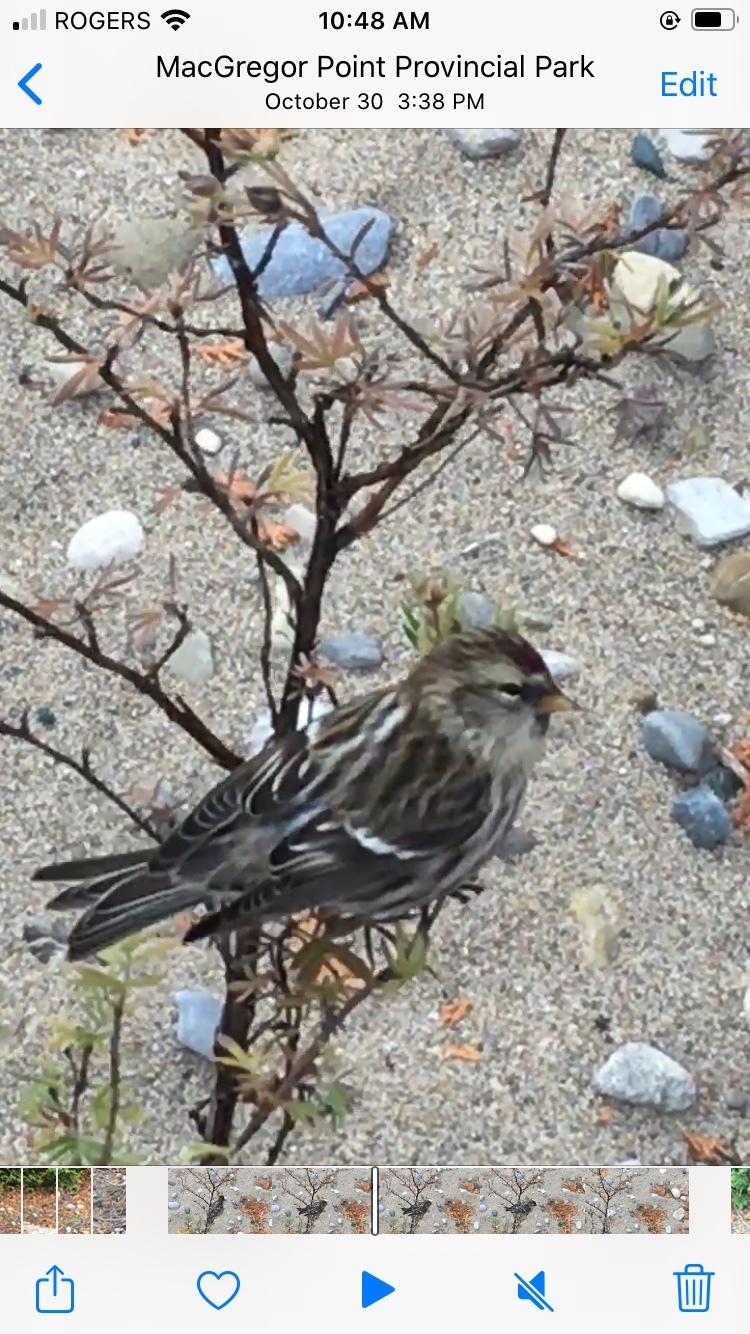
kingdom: Animalia
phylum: Chordata
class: Aves
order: Passeriformes
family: Fringillidae
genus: Acanthis
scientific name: Acanthis flammea
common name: Common redpoll
